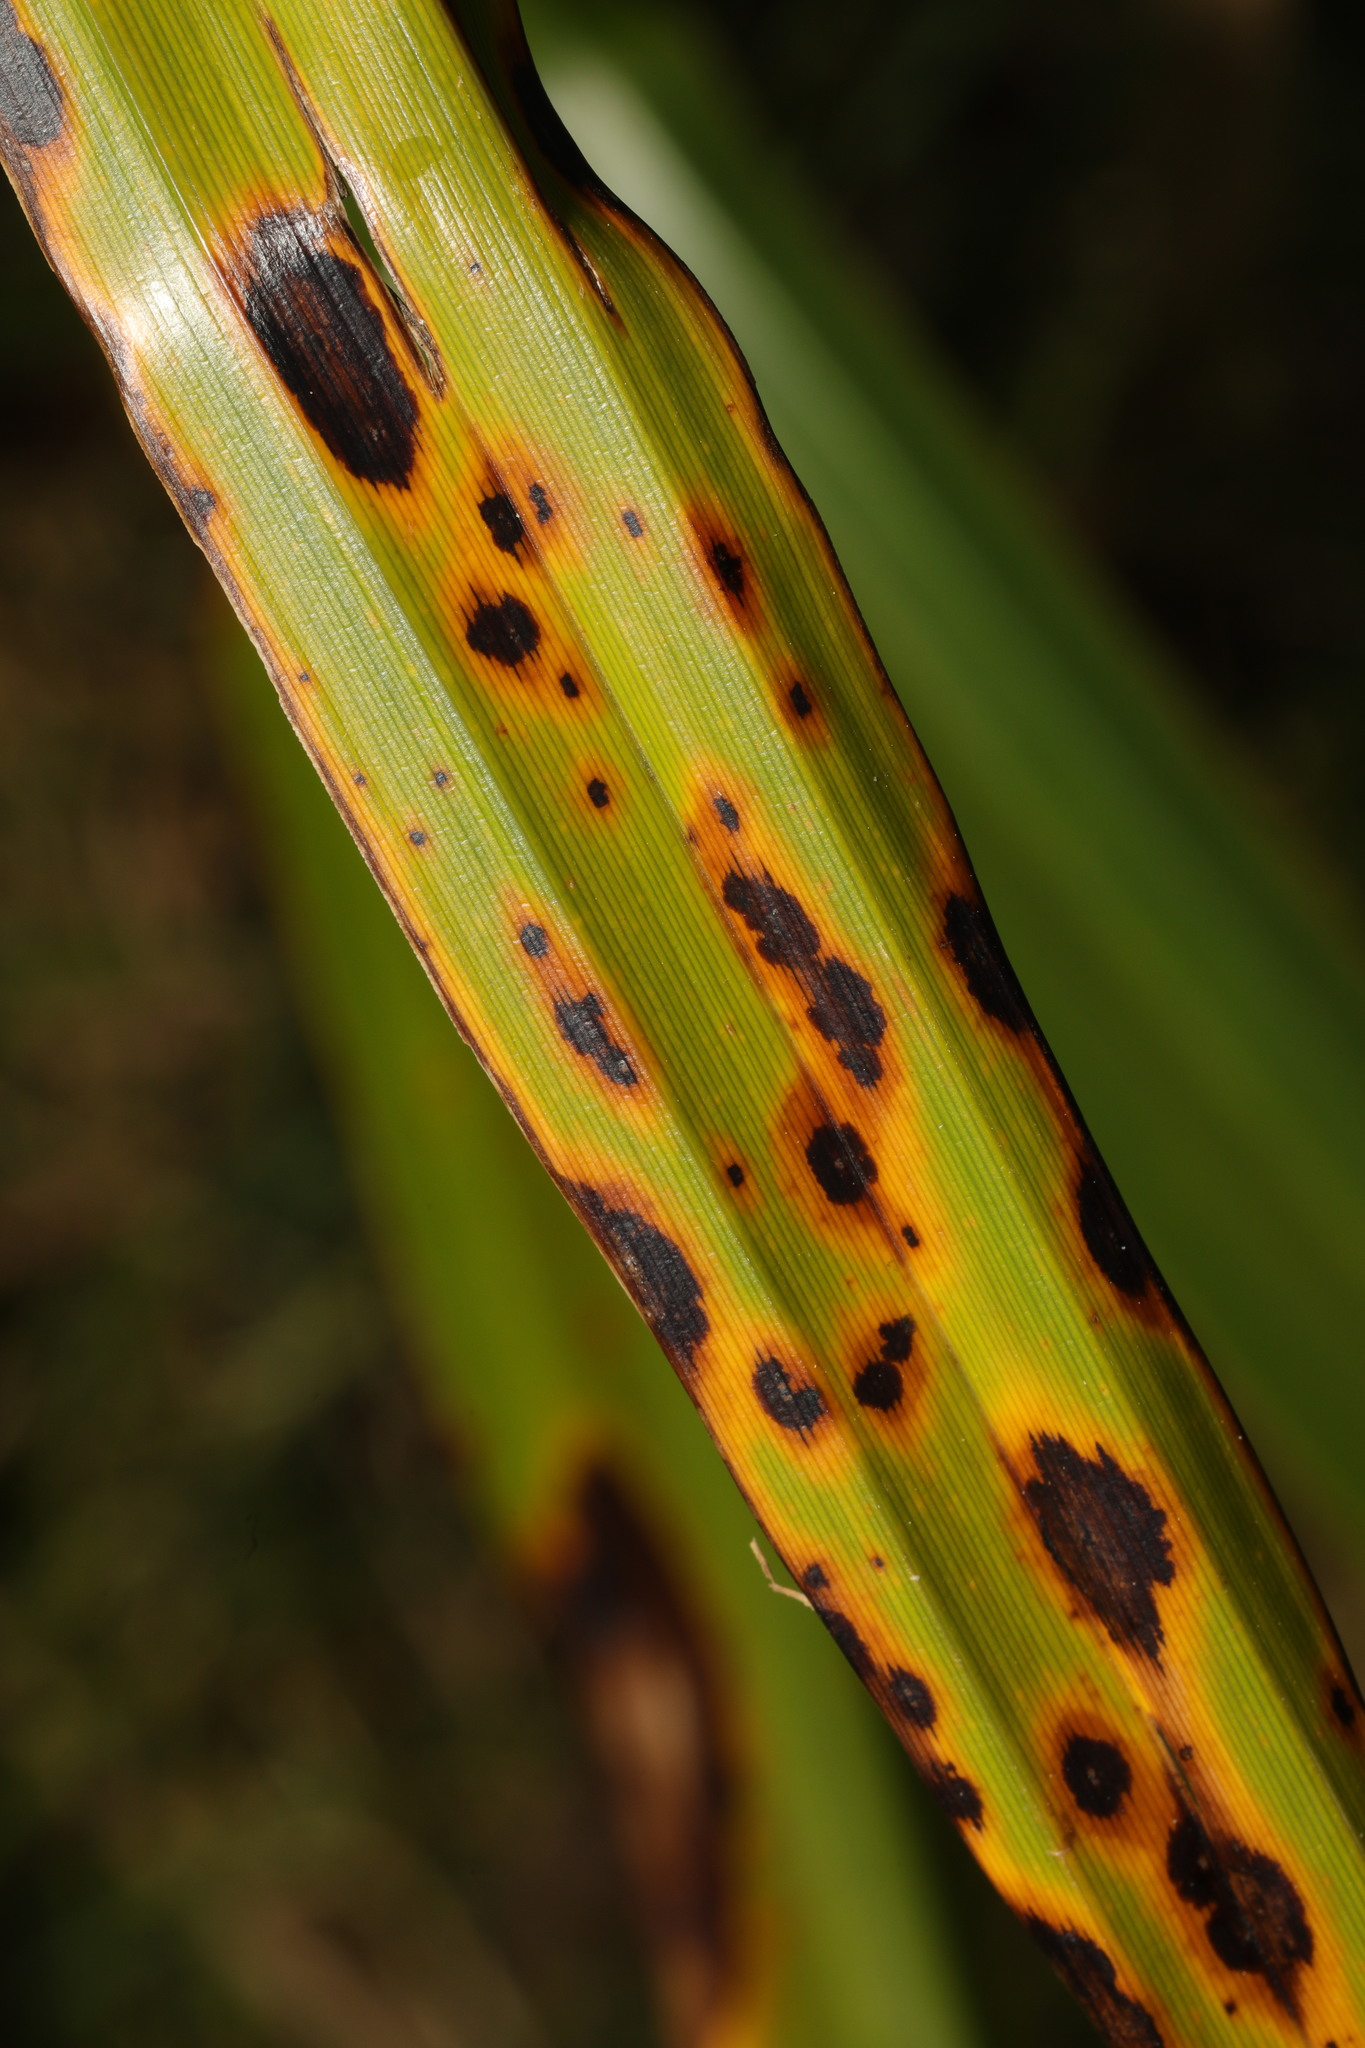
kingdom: Plantae
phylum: Tracheophyta
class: Liliopsida
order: Poales
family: Cyperaceae
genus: Carex
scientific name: Carex pendula
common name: Pendulous sedge
